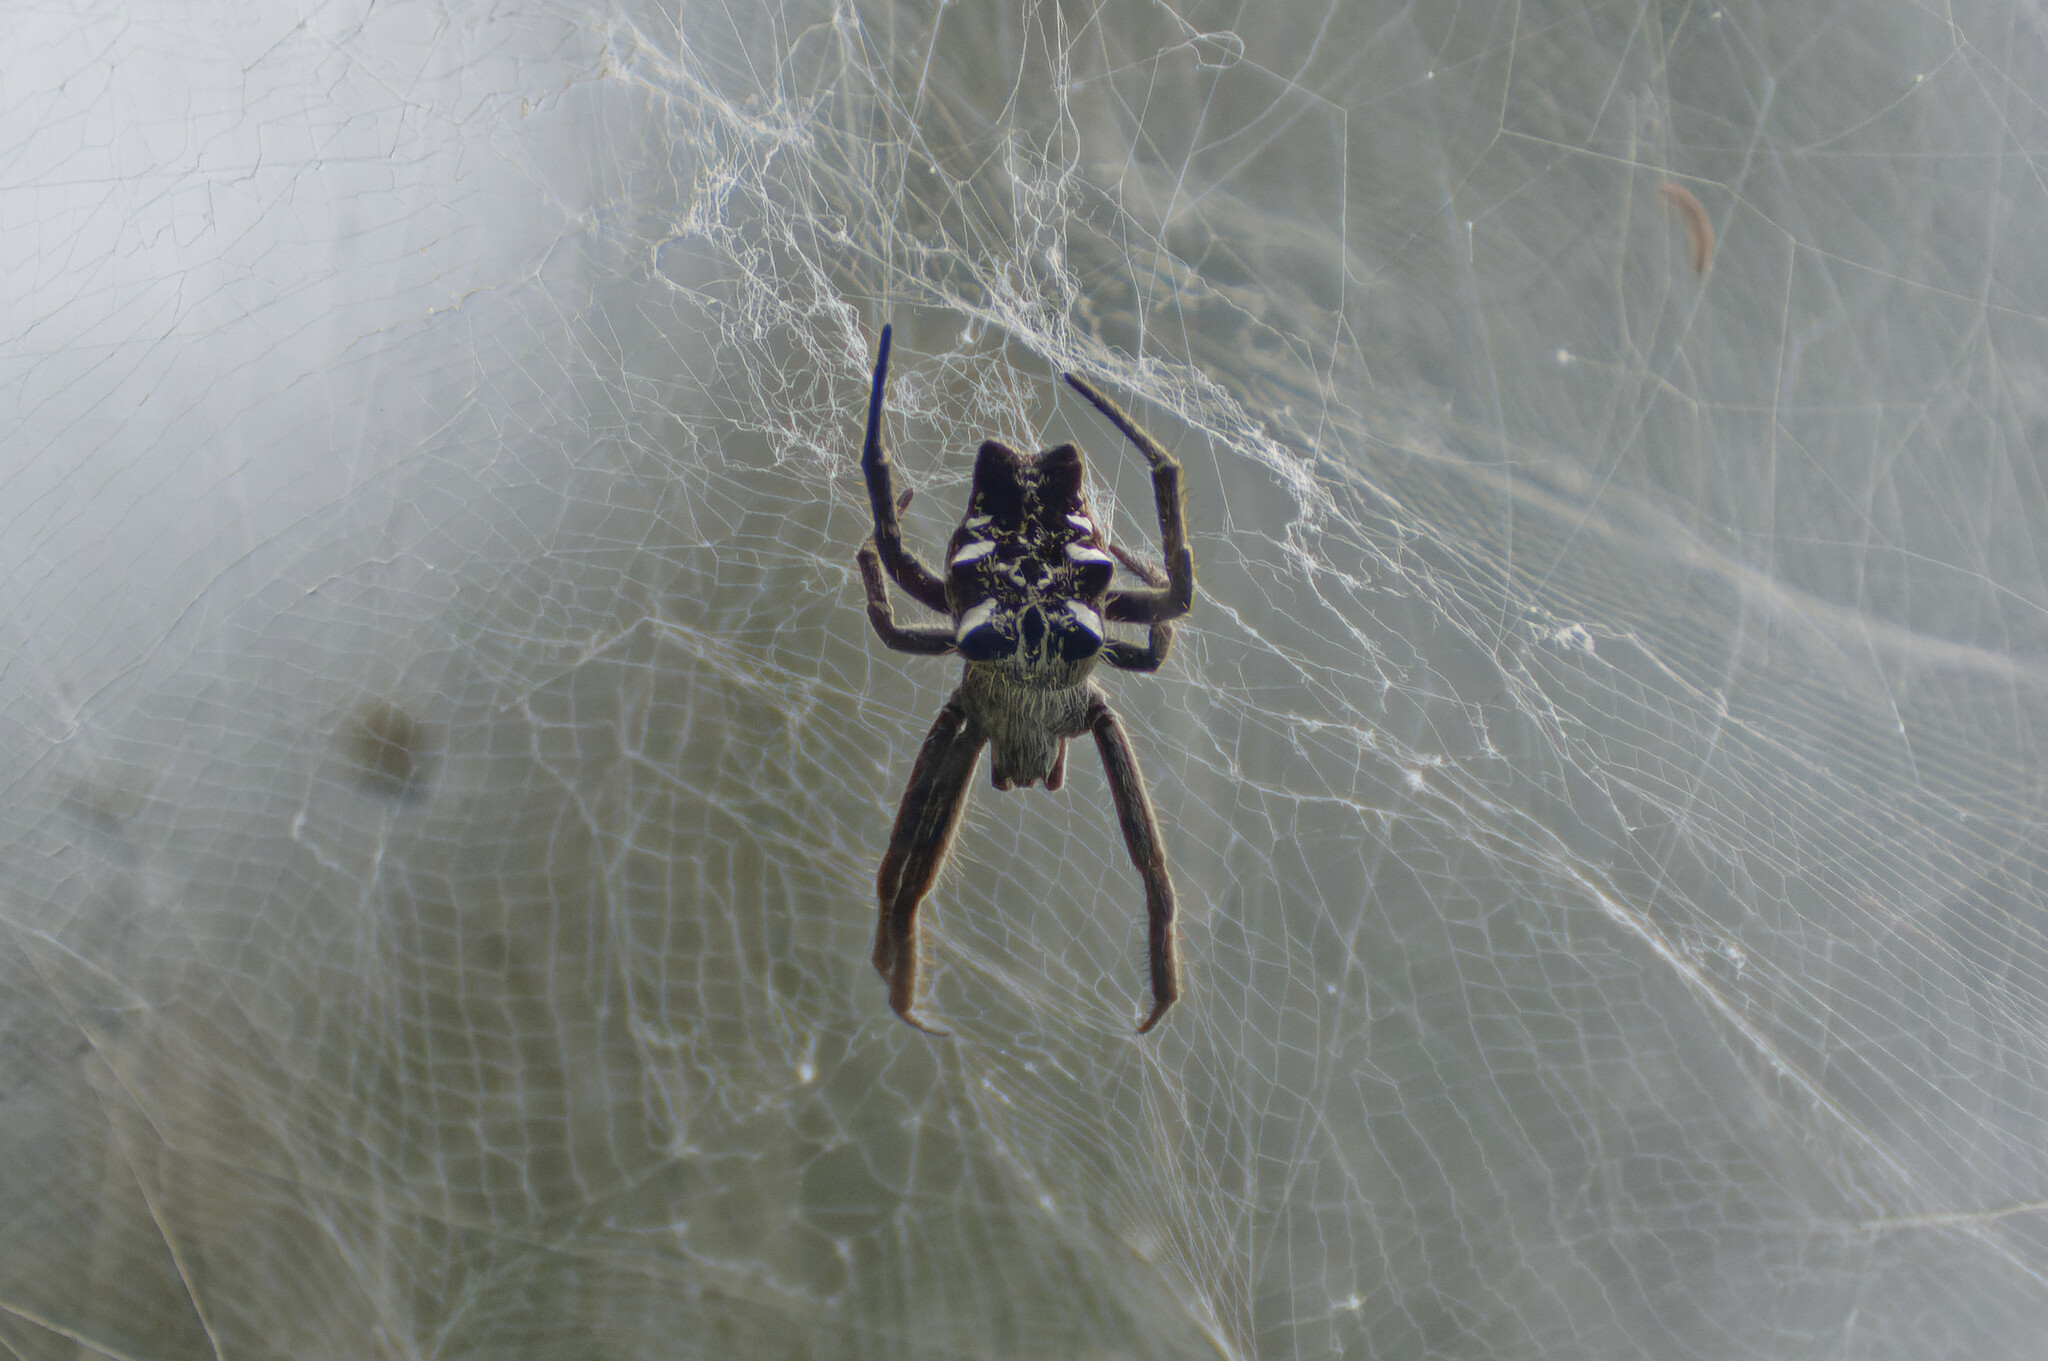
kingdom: Animalia
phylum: Arthropoda
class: Arachnida
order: Araneae
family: Araneidae
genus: Cyrtophora
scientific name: Cyrtophora citricola
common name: Orb weavers
